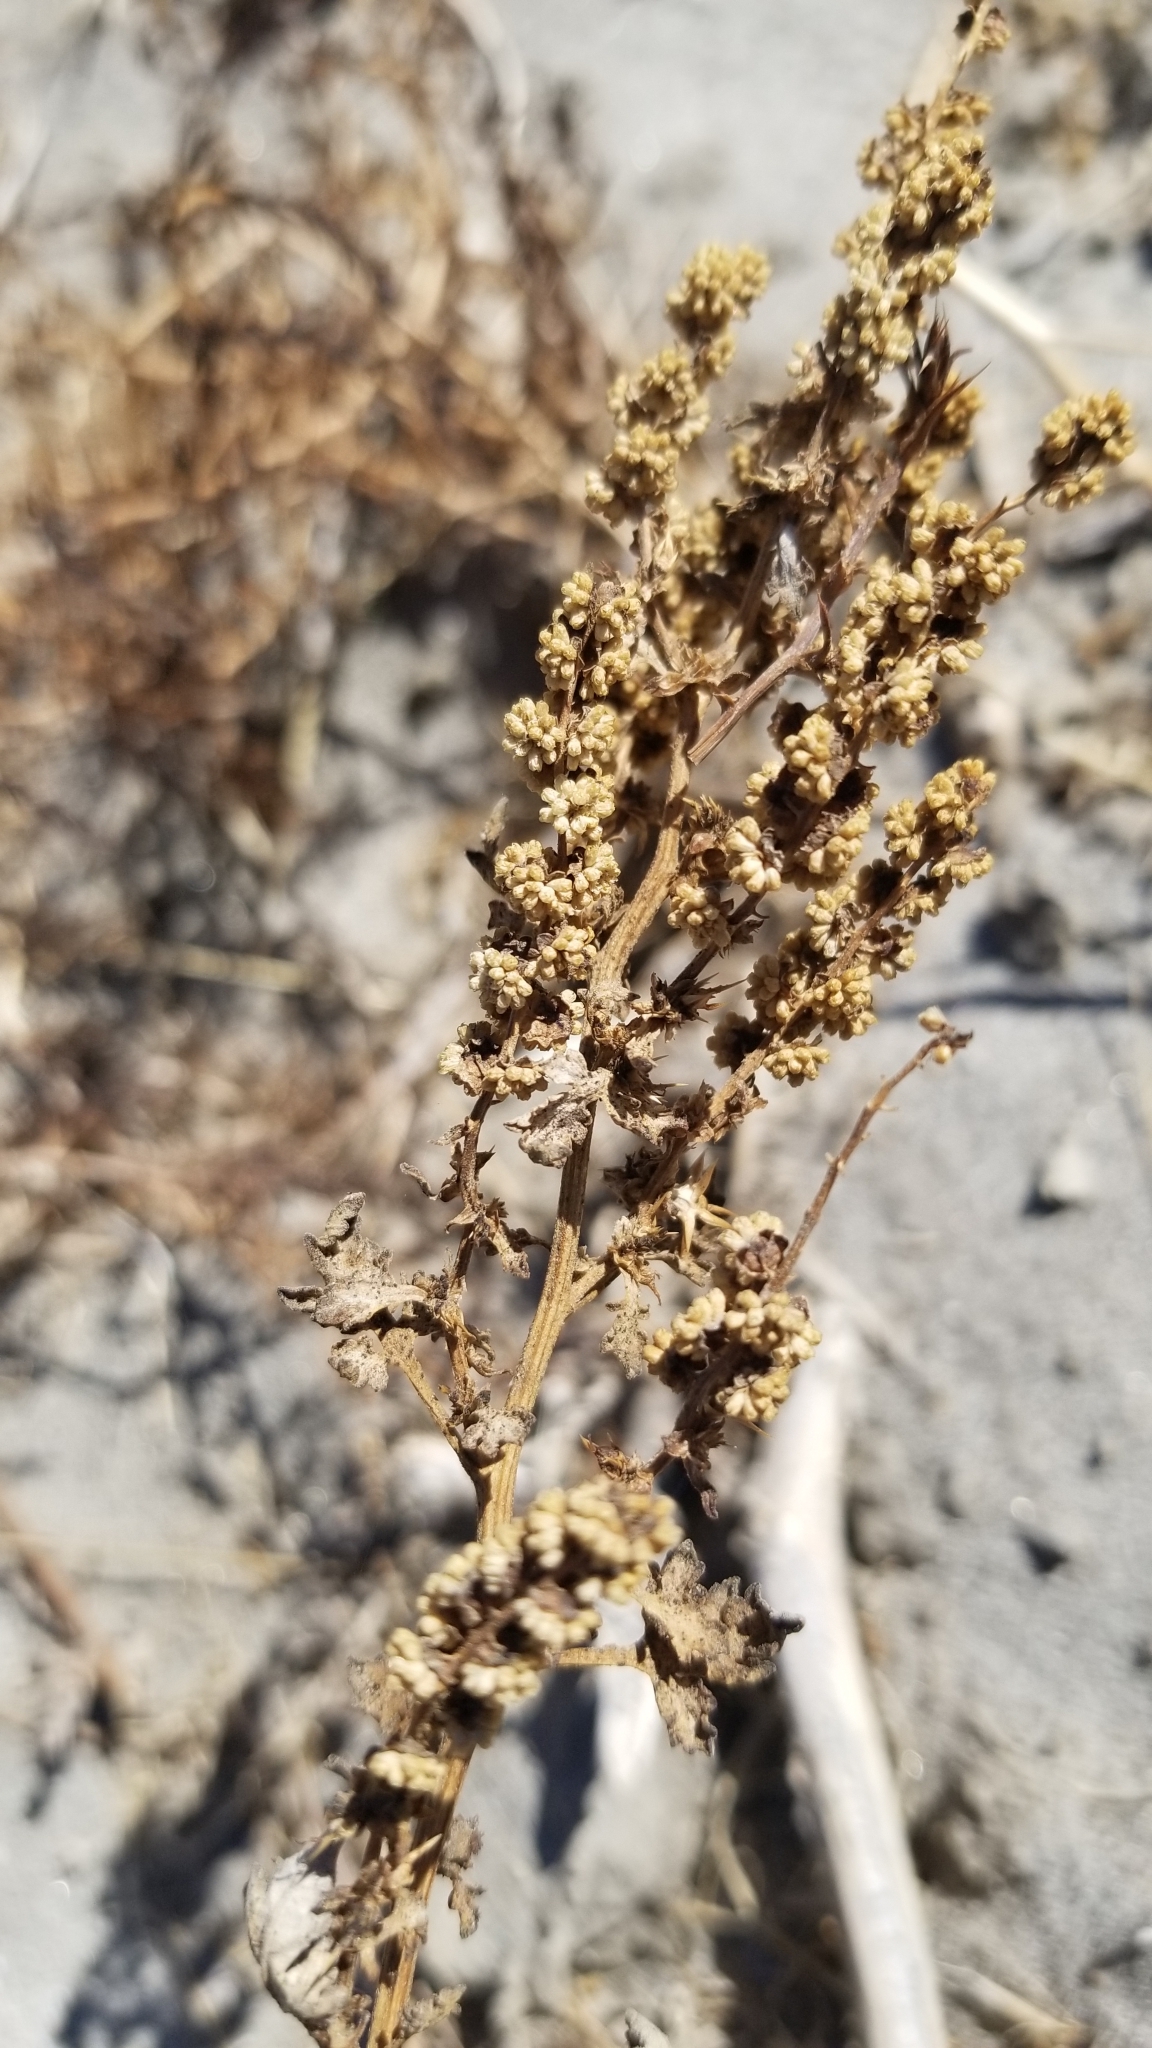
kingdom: Plantae
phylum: Tracheophyta
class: Magnoliopsida
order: Asterales
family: Asteraceae
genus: Ambrosia
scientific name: Ambrosia acanthicarpa
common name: Hooker's bur ragweed
